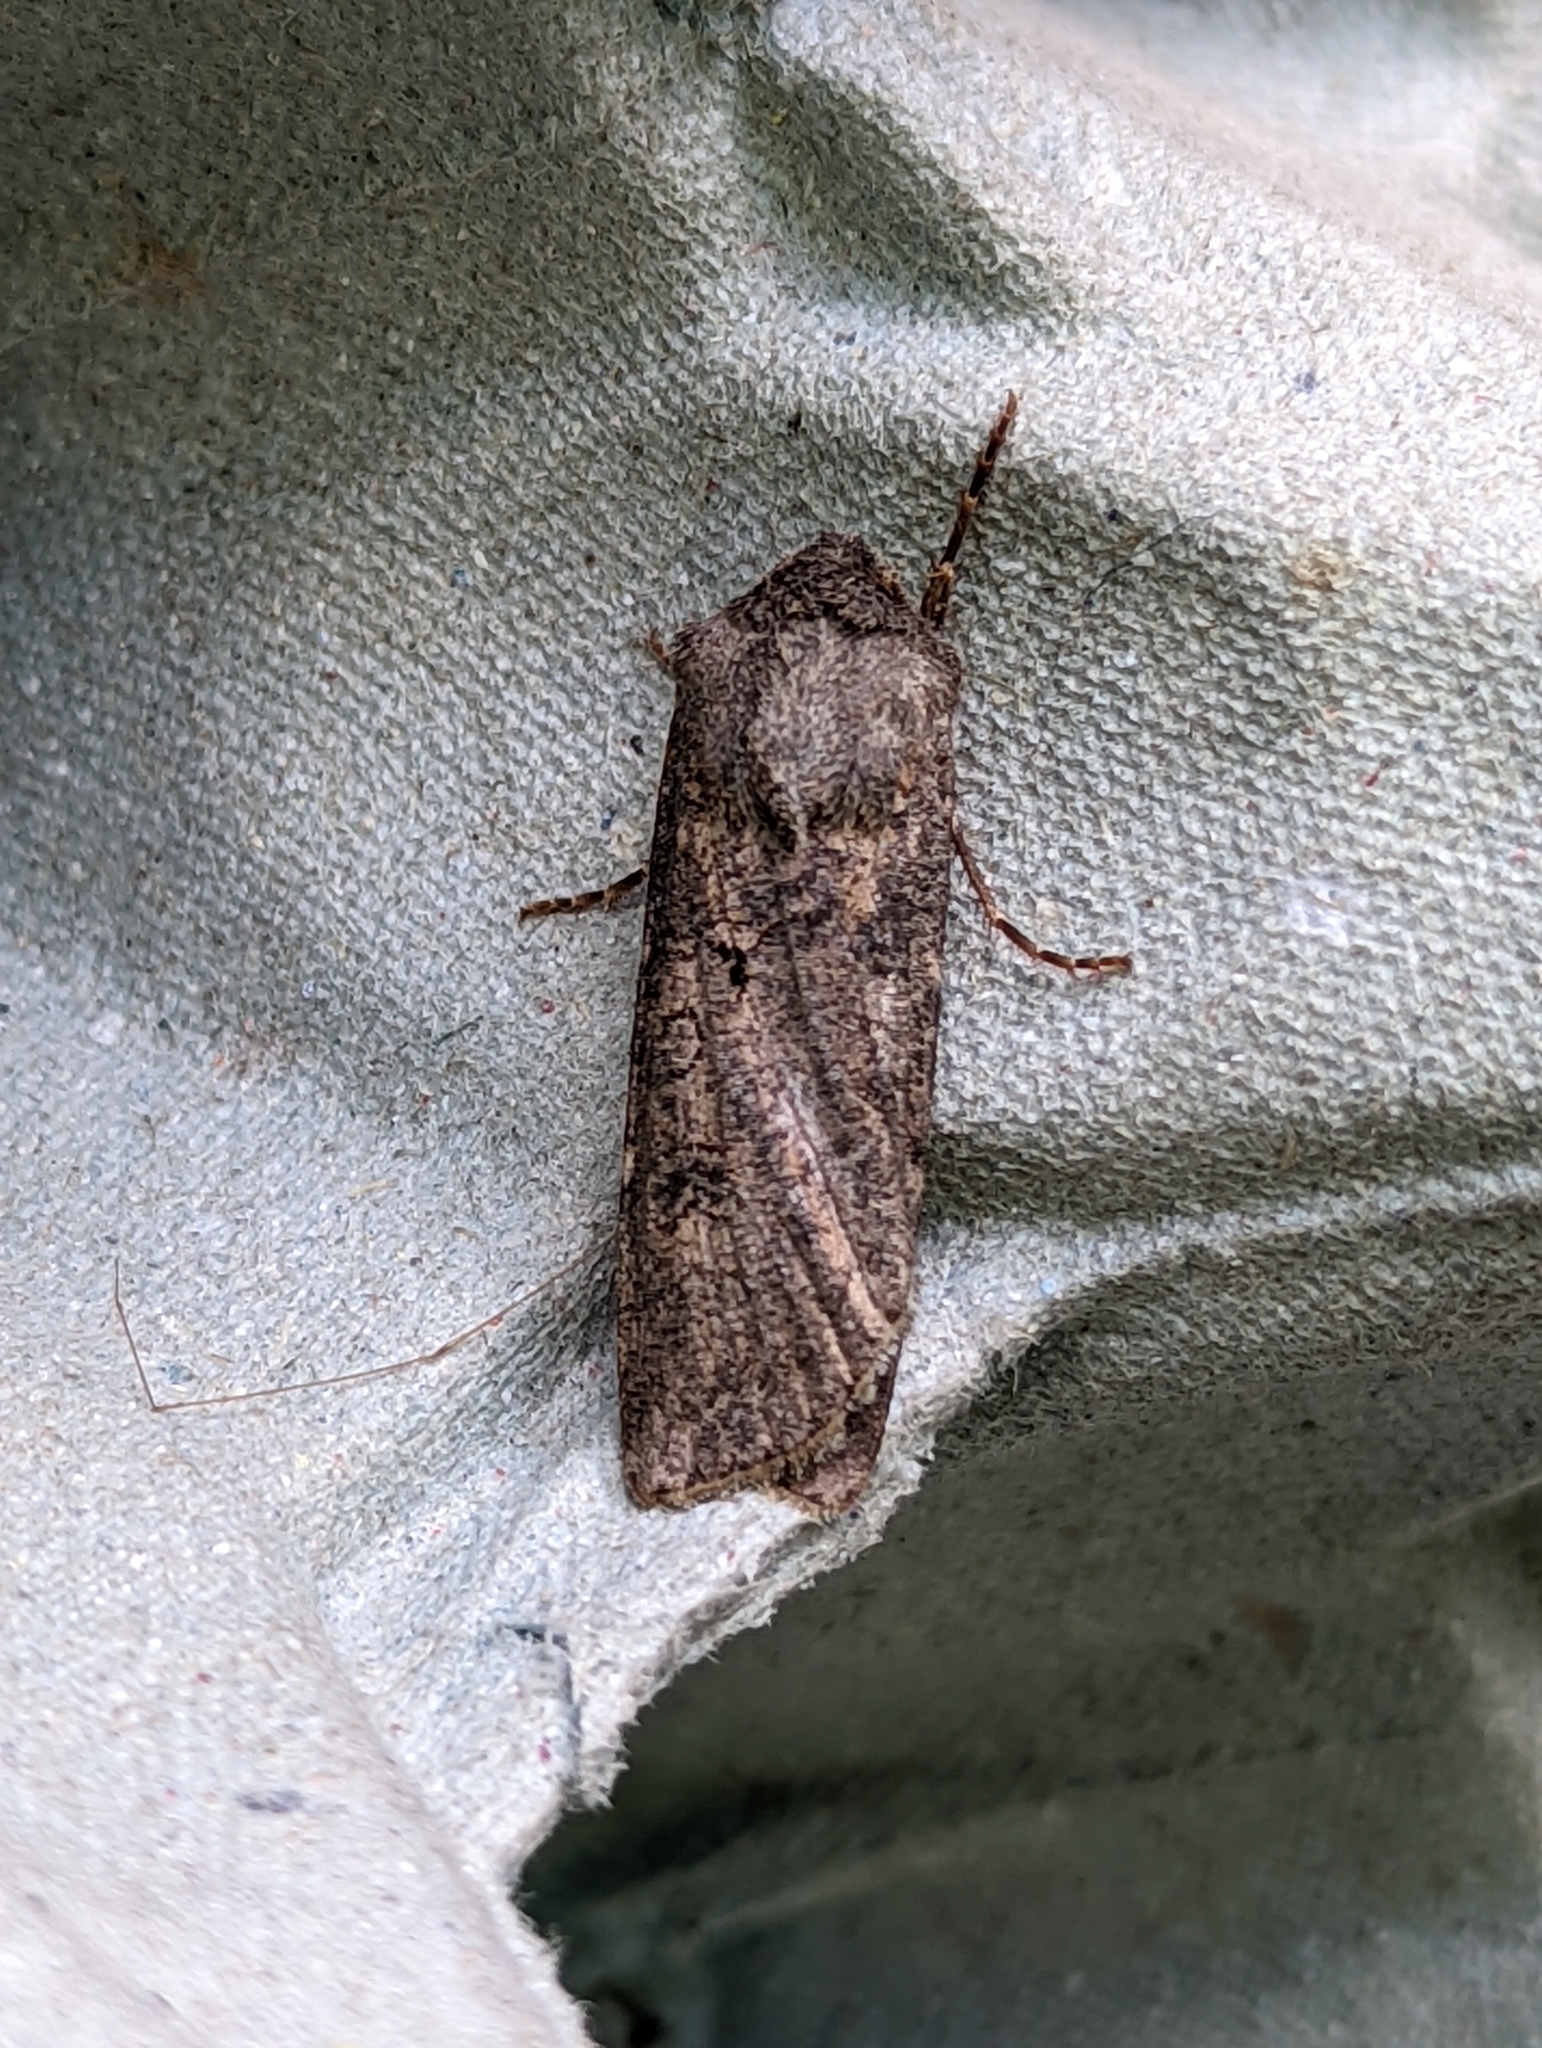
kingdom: Animalia
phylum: Arthropoda
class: Insecta
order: Lepidoptera
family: Noctuidae
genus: Agrotis
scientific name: Agrotis segetum
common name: Turnip moth
